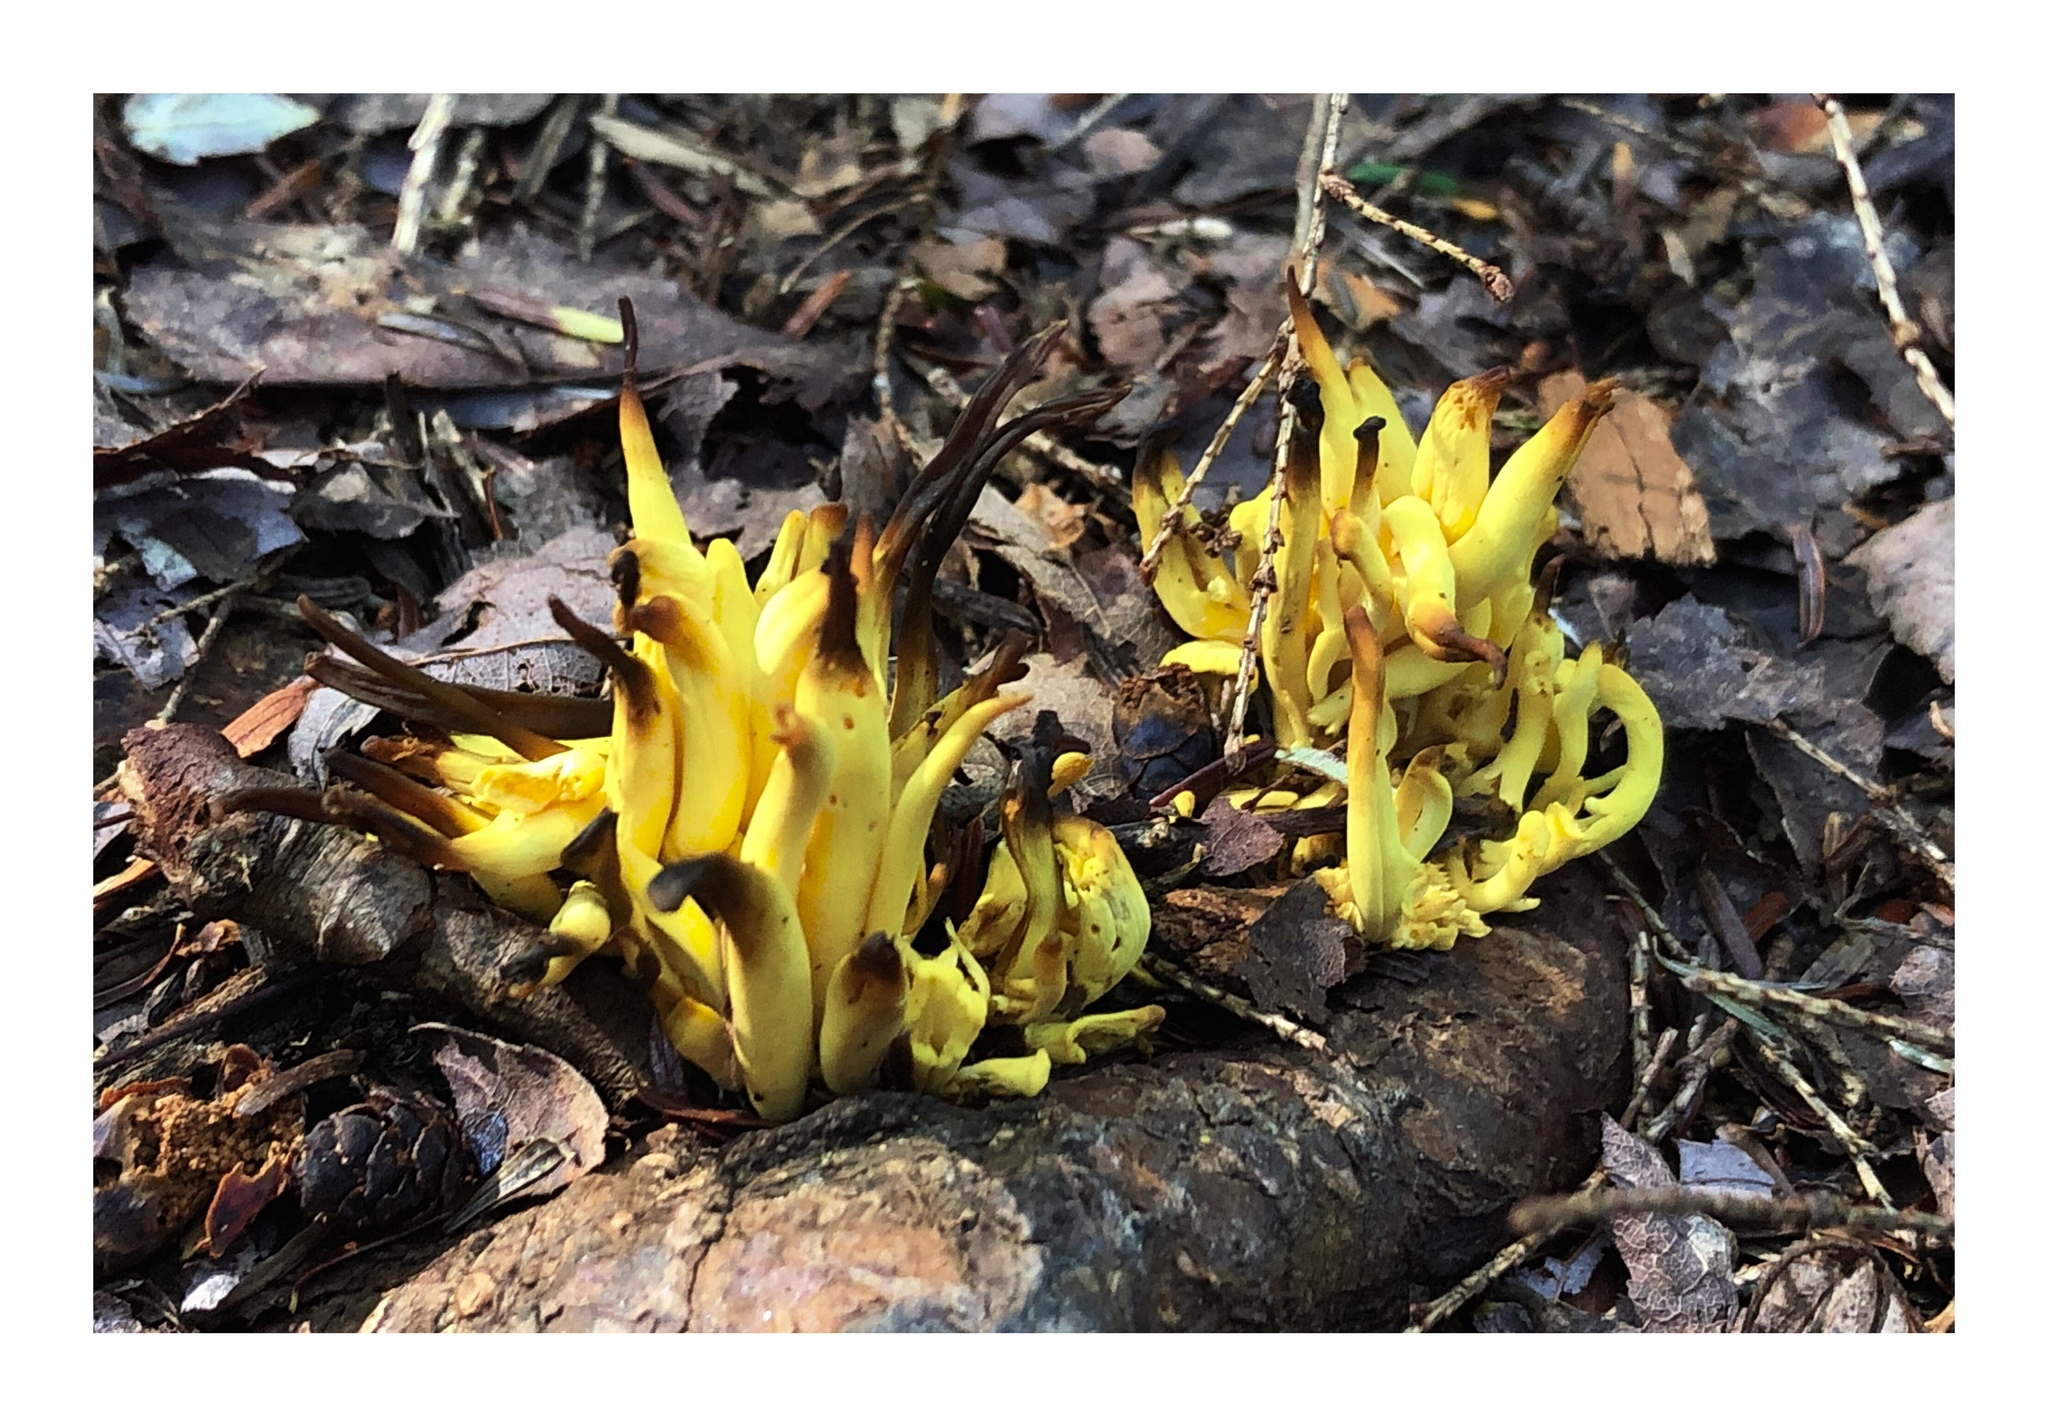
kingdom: Fungi
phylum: Basidiomycota
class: Agaricomycetes
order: Agaricales
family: Clavariaceae
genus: Clavulinopsis
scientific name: Clavulinopsis fusiformis
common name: Golden spindles
